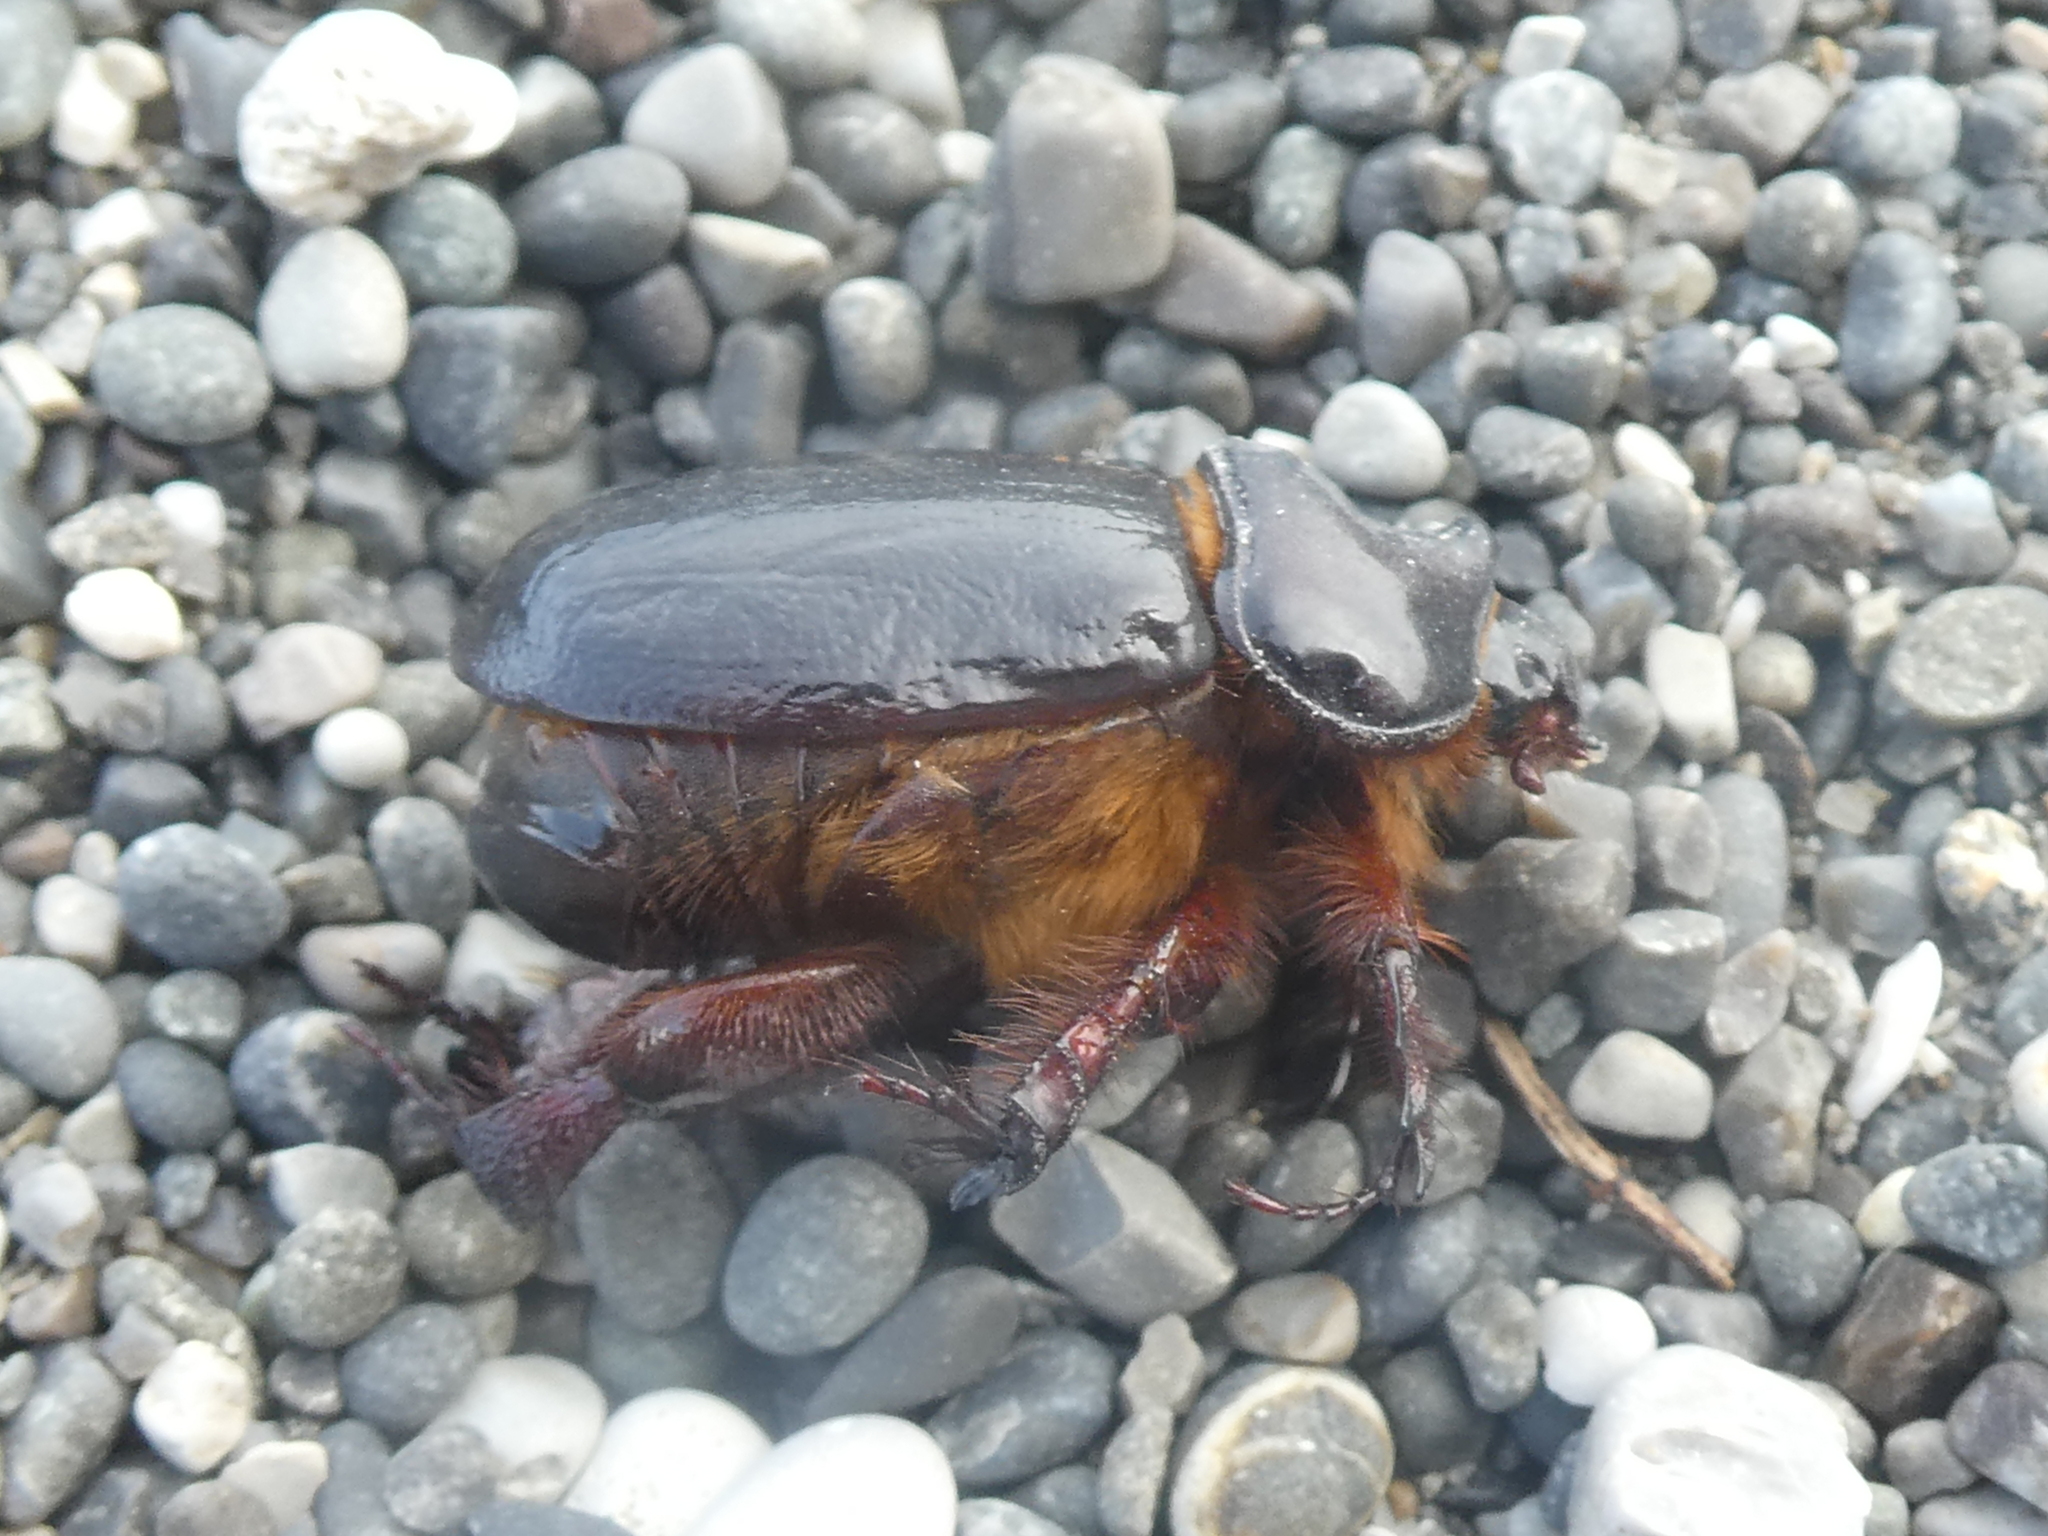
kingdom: Animalia
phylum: Arthropoda
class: Insecta
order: Coleoptera
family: Scarabaeidae
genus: Pericoptus
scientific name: Pericoptus truncatus
